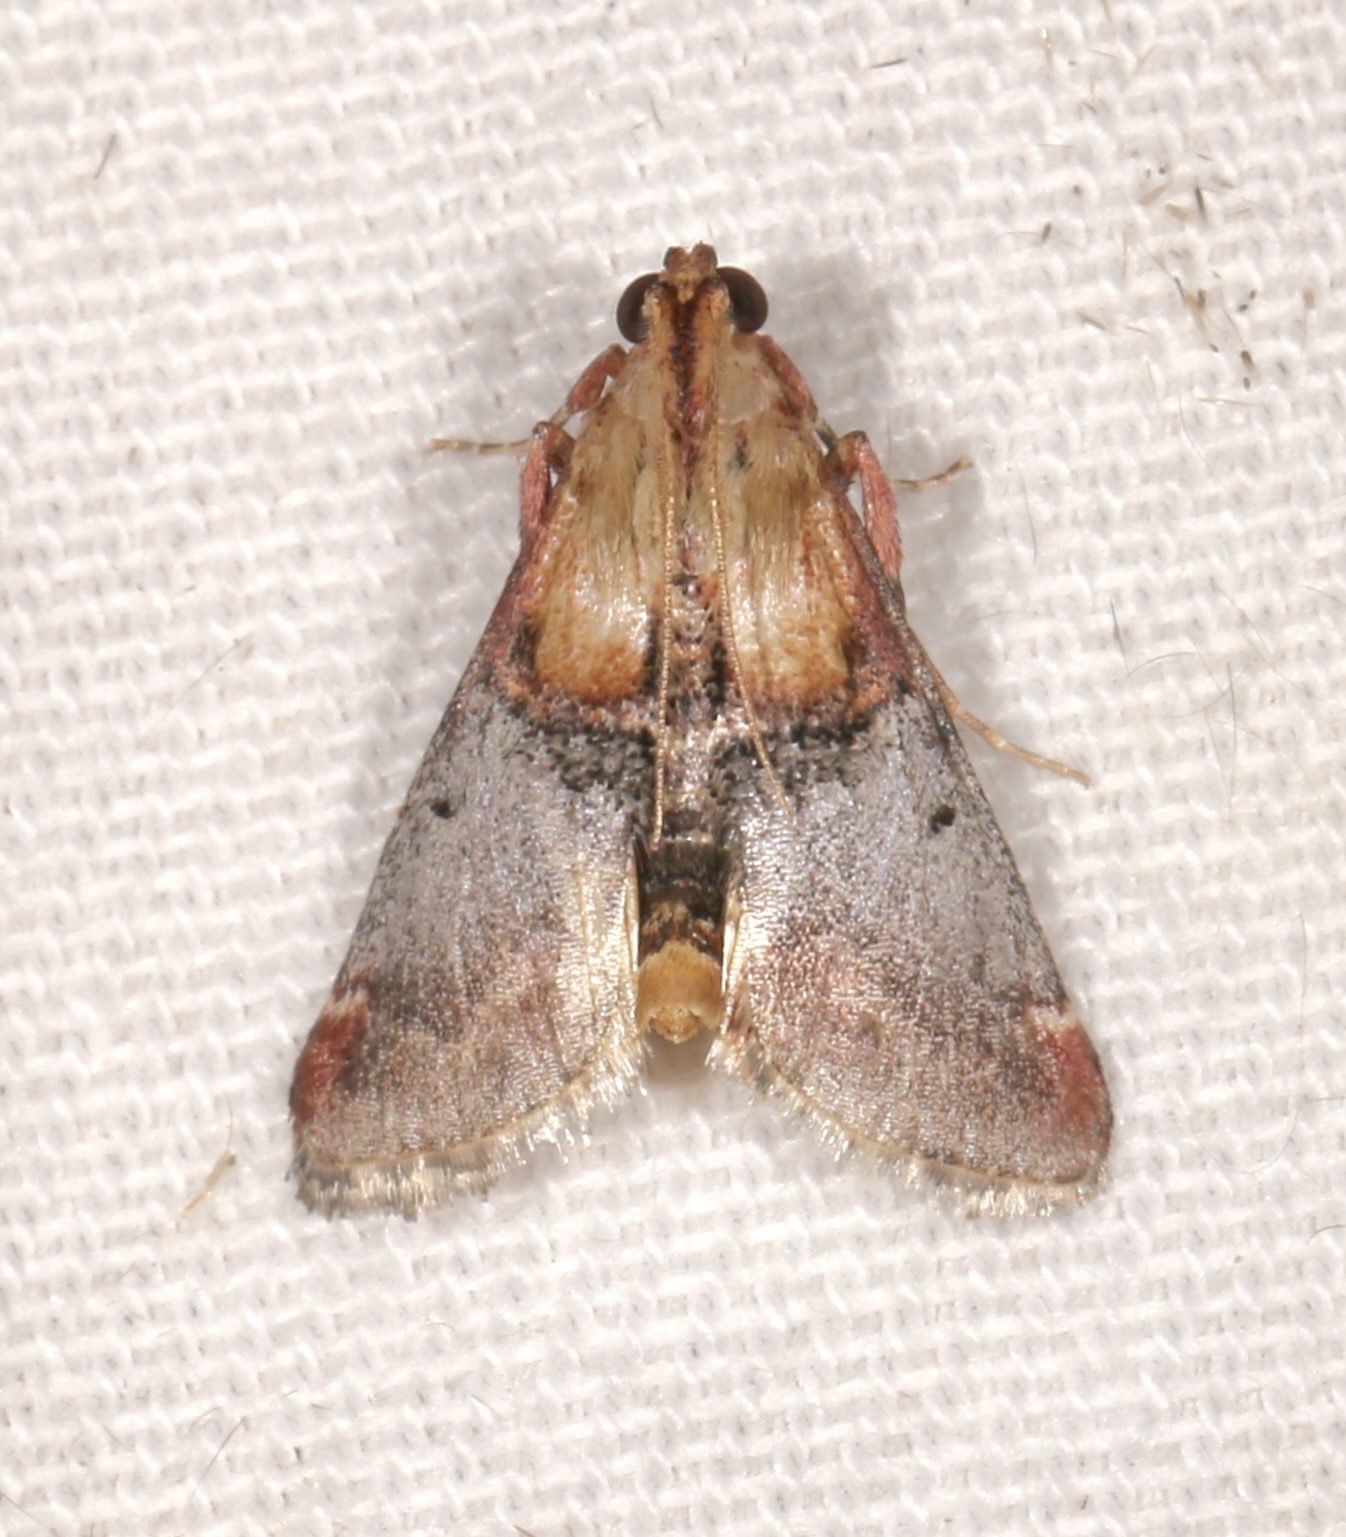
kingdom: Animalia
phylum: Arthropoda
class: Insecta
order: Lepidoptera
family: Pyralidae
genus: Cacozelia
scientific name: Cacozelia basiochrealis
